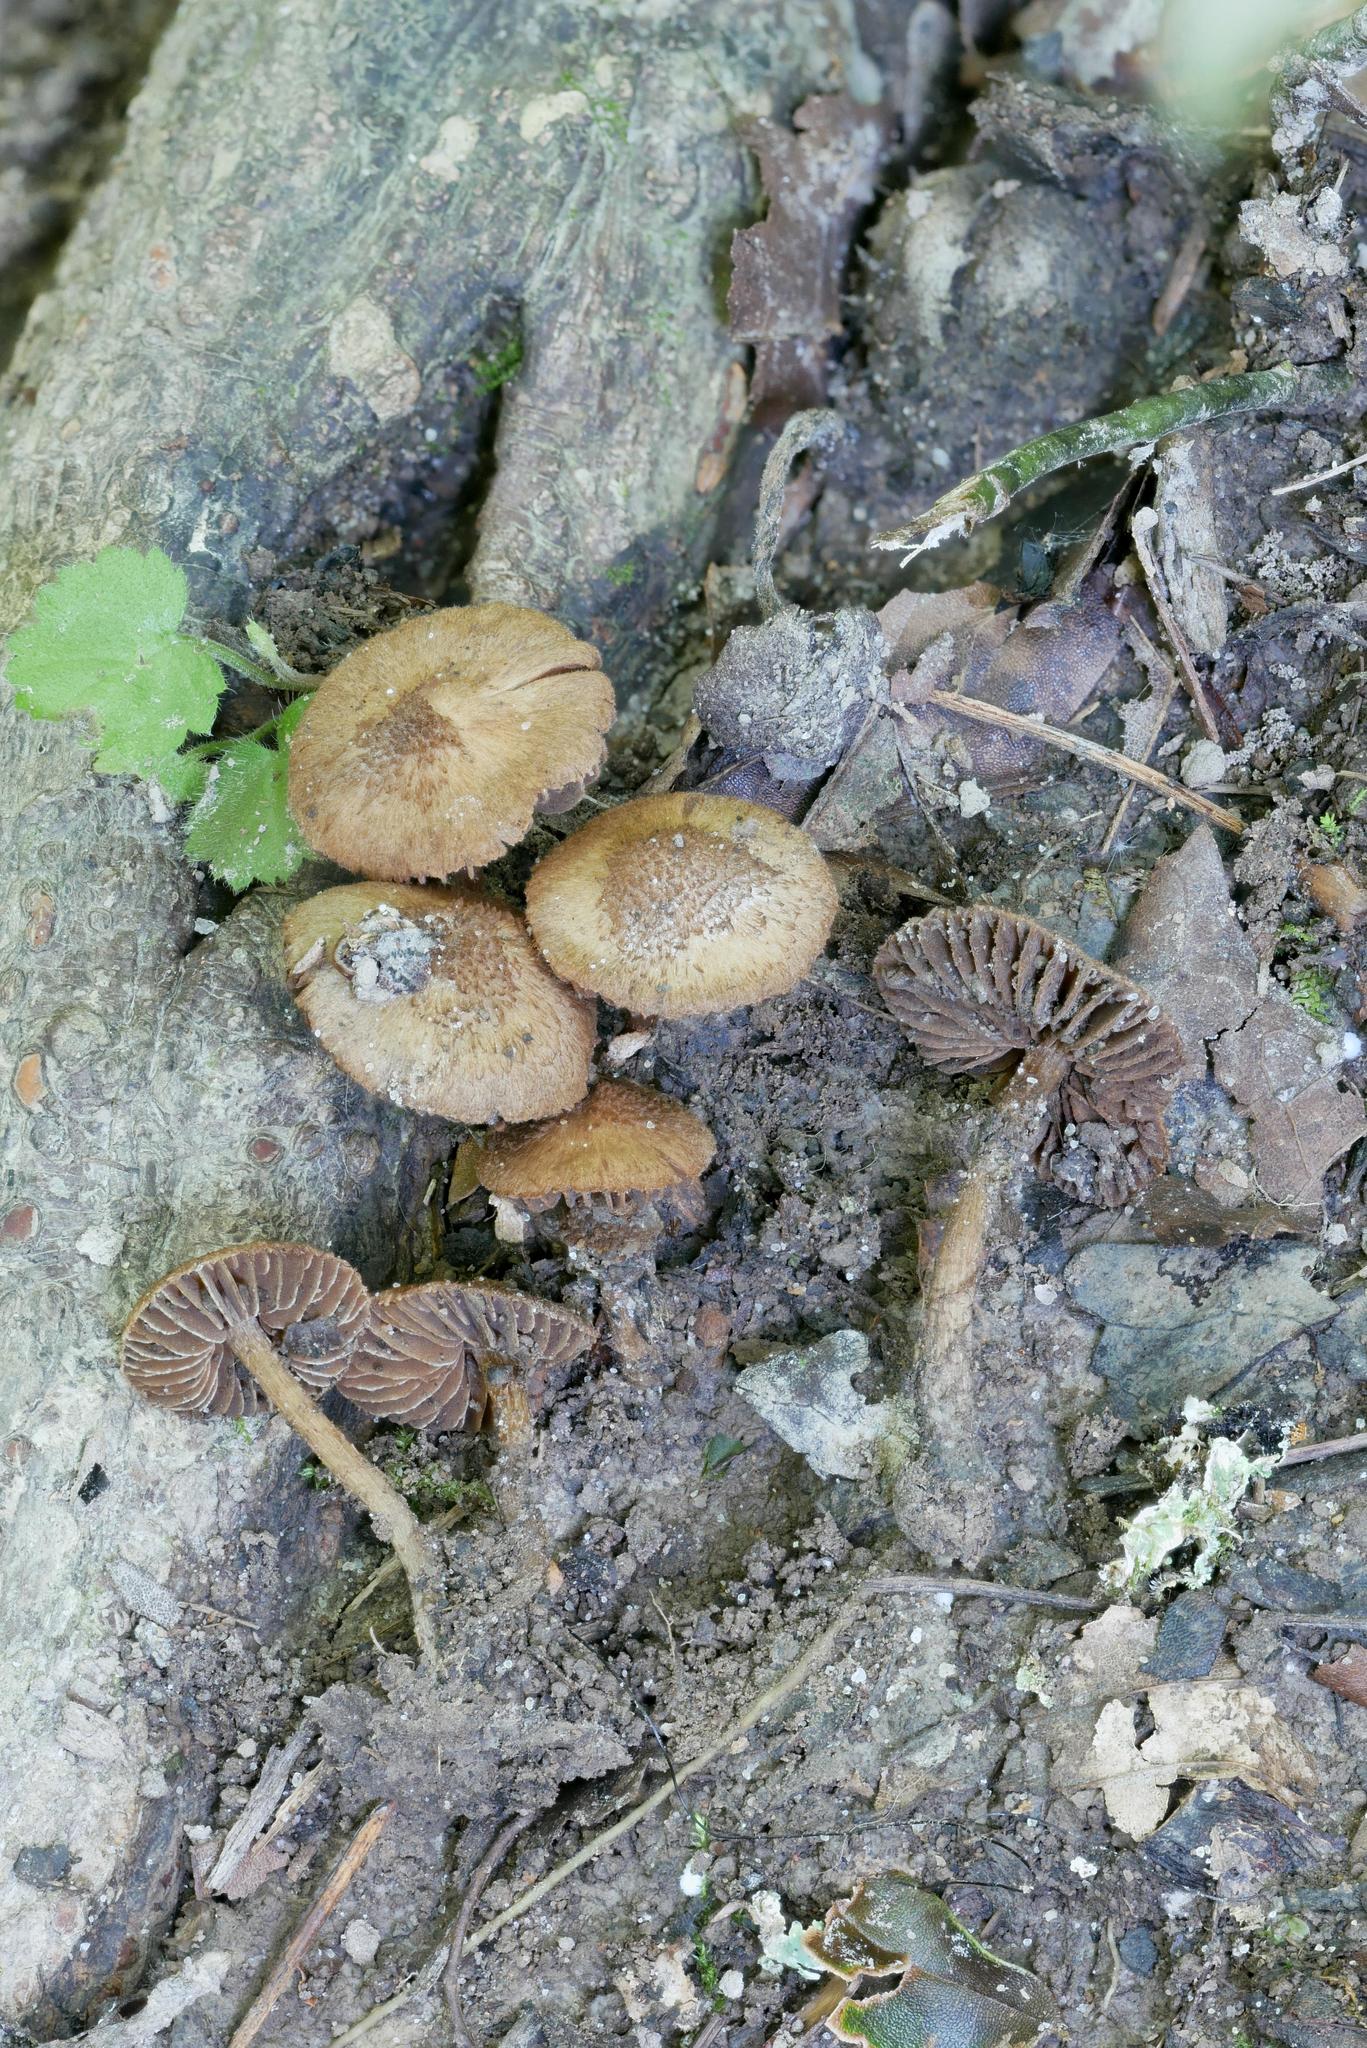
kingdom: Fungi
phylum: Basidiomycota
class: Agaricomycetes
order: Agaricales
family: Inocybaceae
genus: Inosperma
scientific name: Inosperma mutatum
